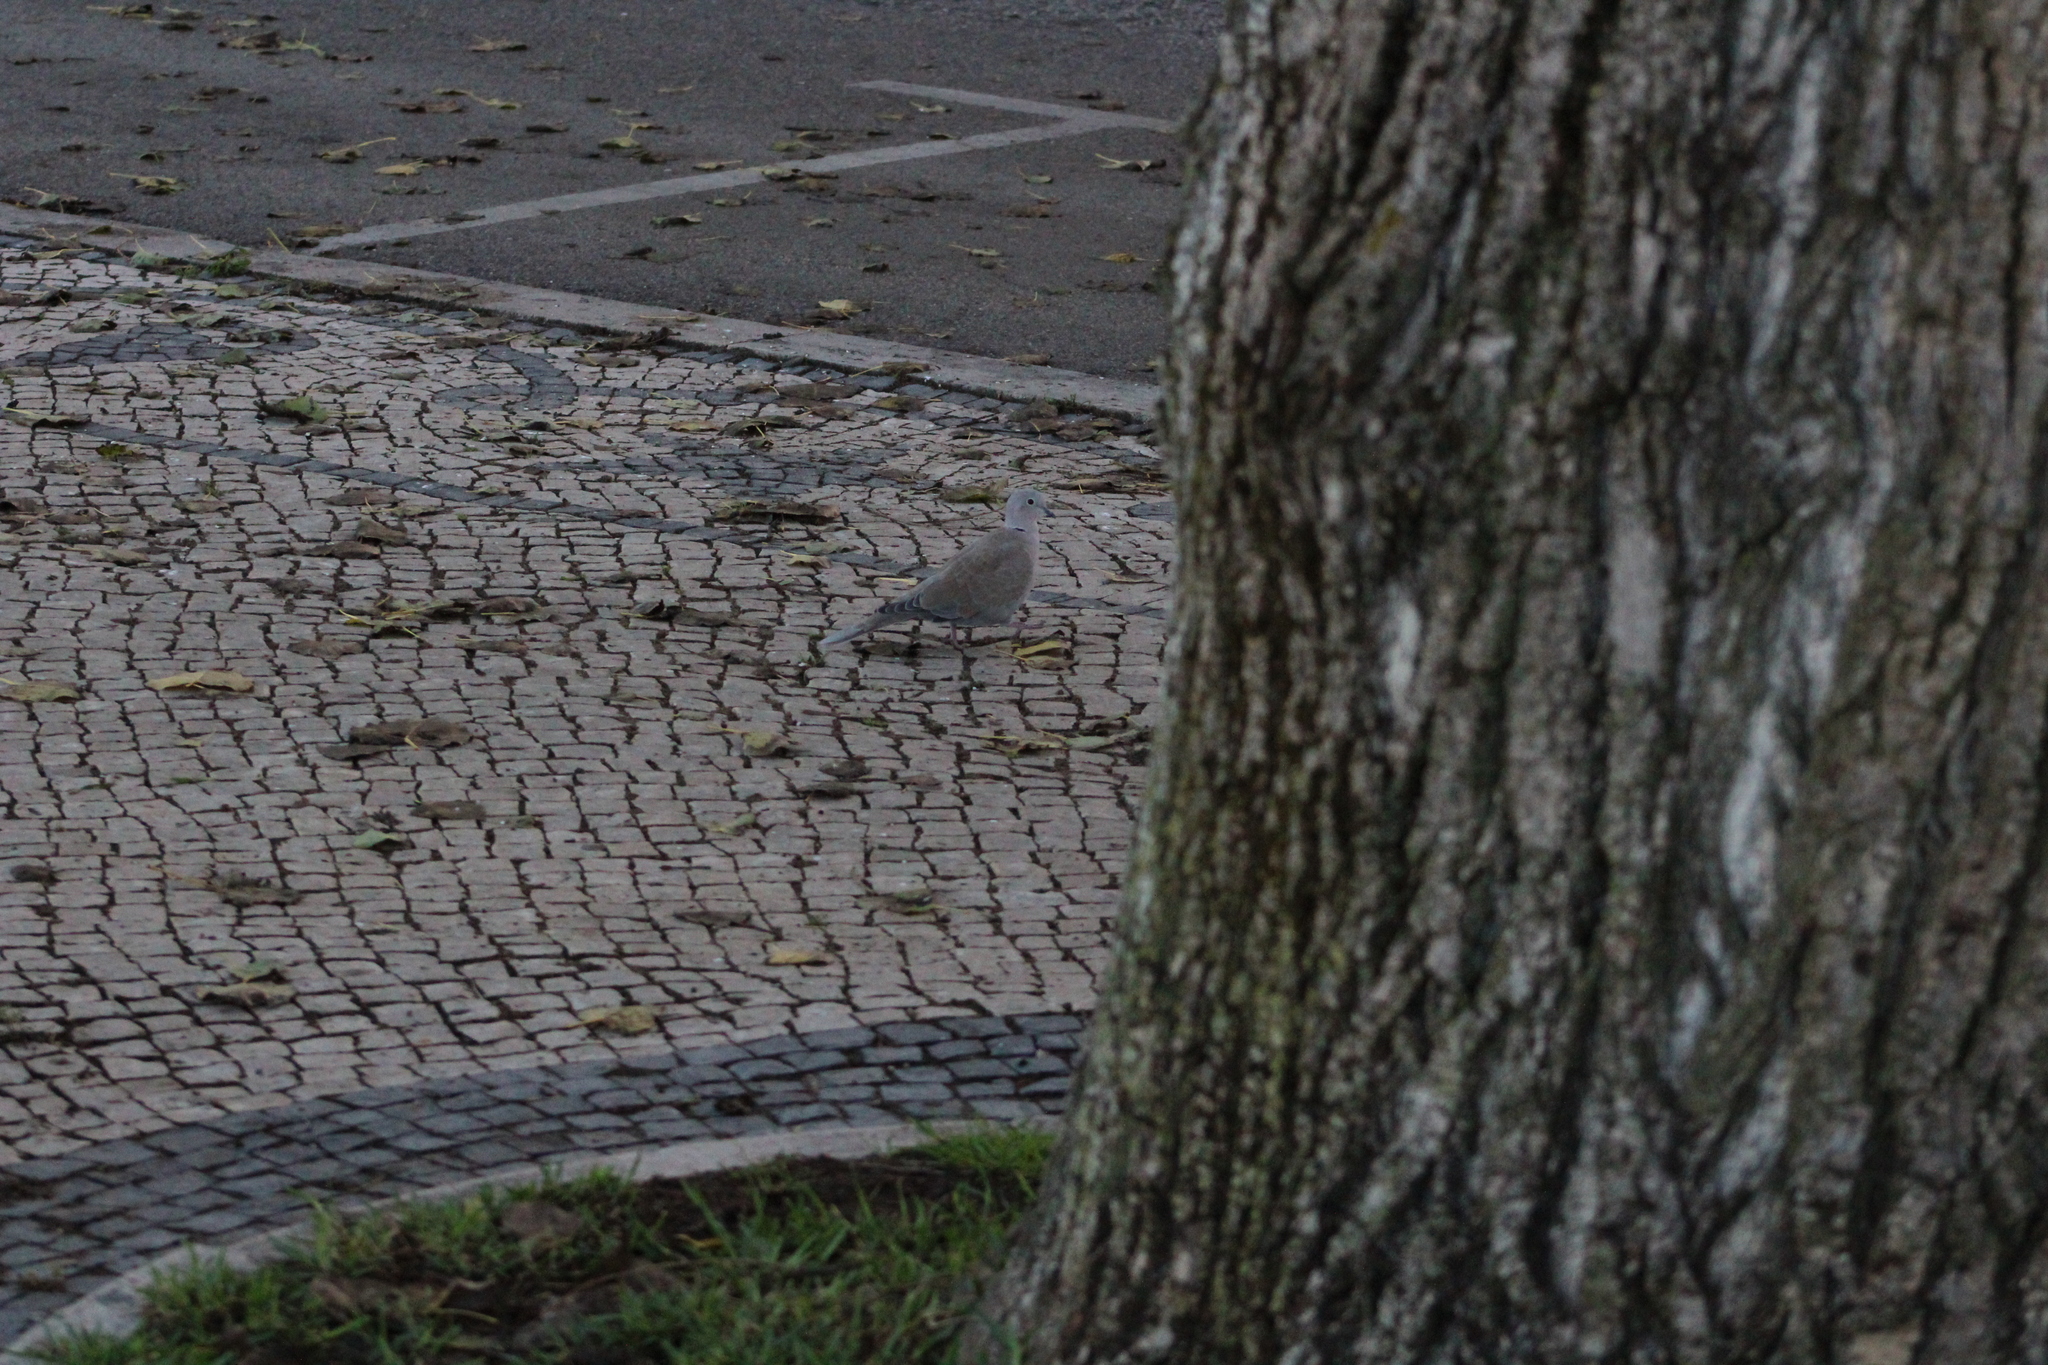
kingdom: Animalia
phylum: Chordata
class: Aves
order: Columbiformes
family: Columbidae
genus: Streptopelia
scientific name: Streptopelia decaocto
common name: Eurasian collared dove
